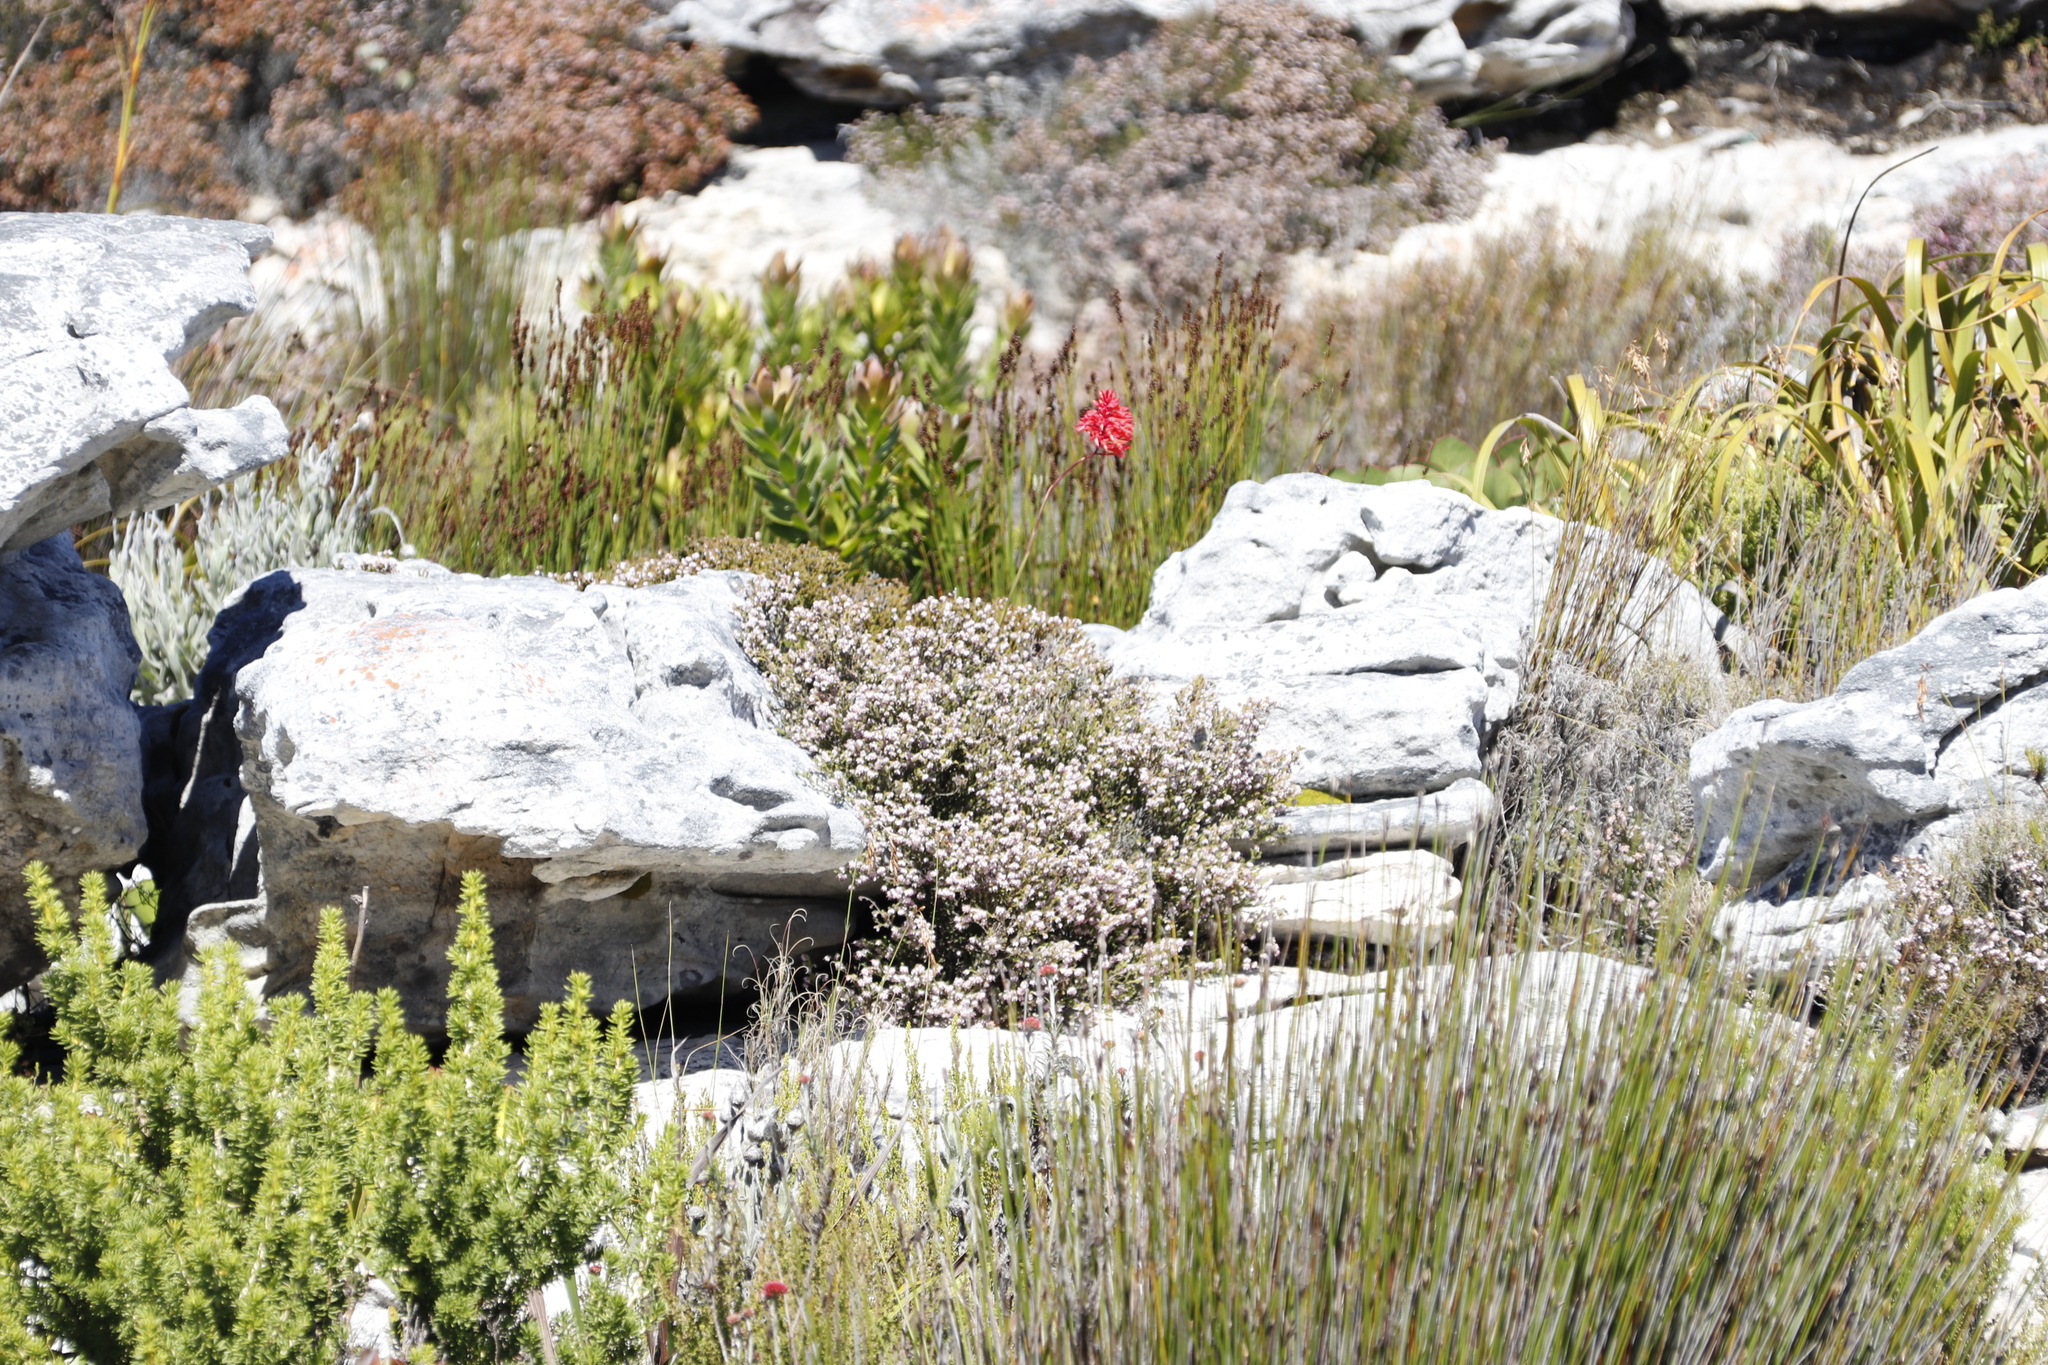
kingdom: Plantae
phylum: Tracheophyta
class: Magnoliopsida
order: Ericales
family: Ericaceae
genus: Erica
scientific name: Erica ericoides
